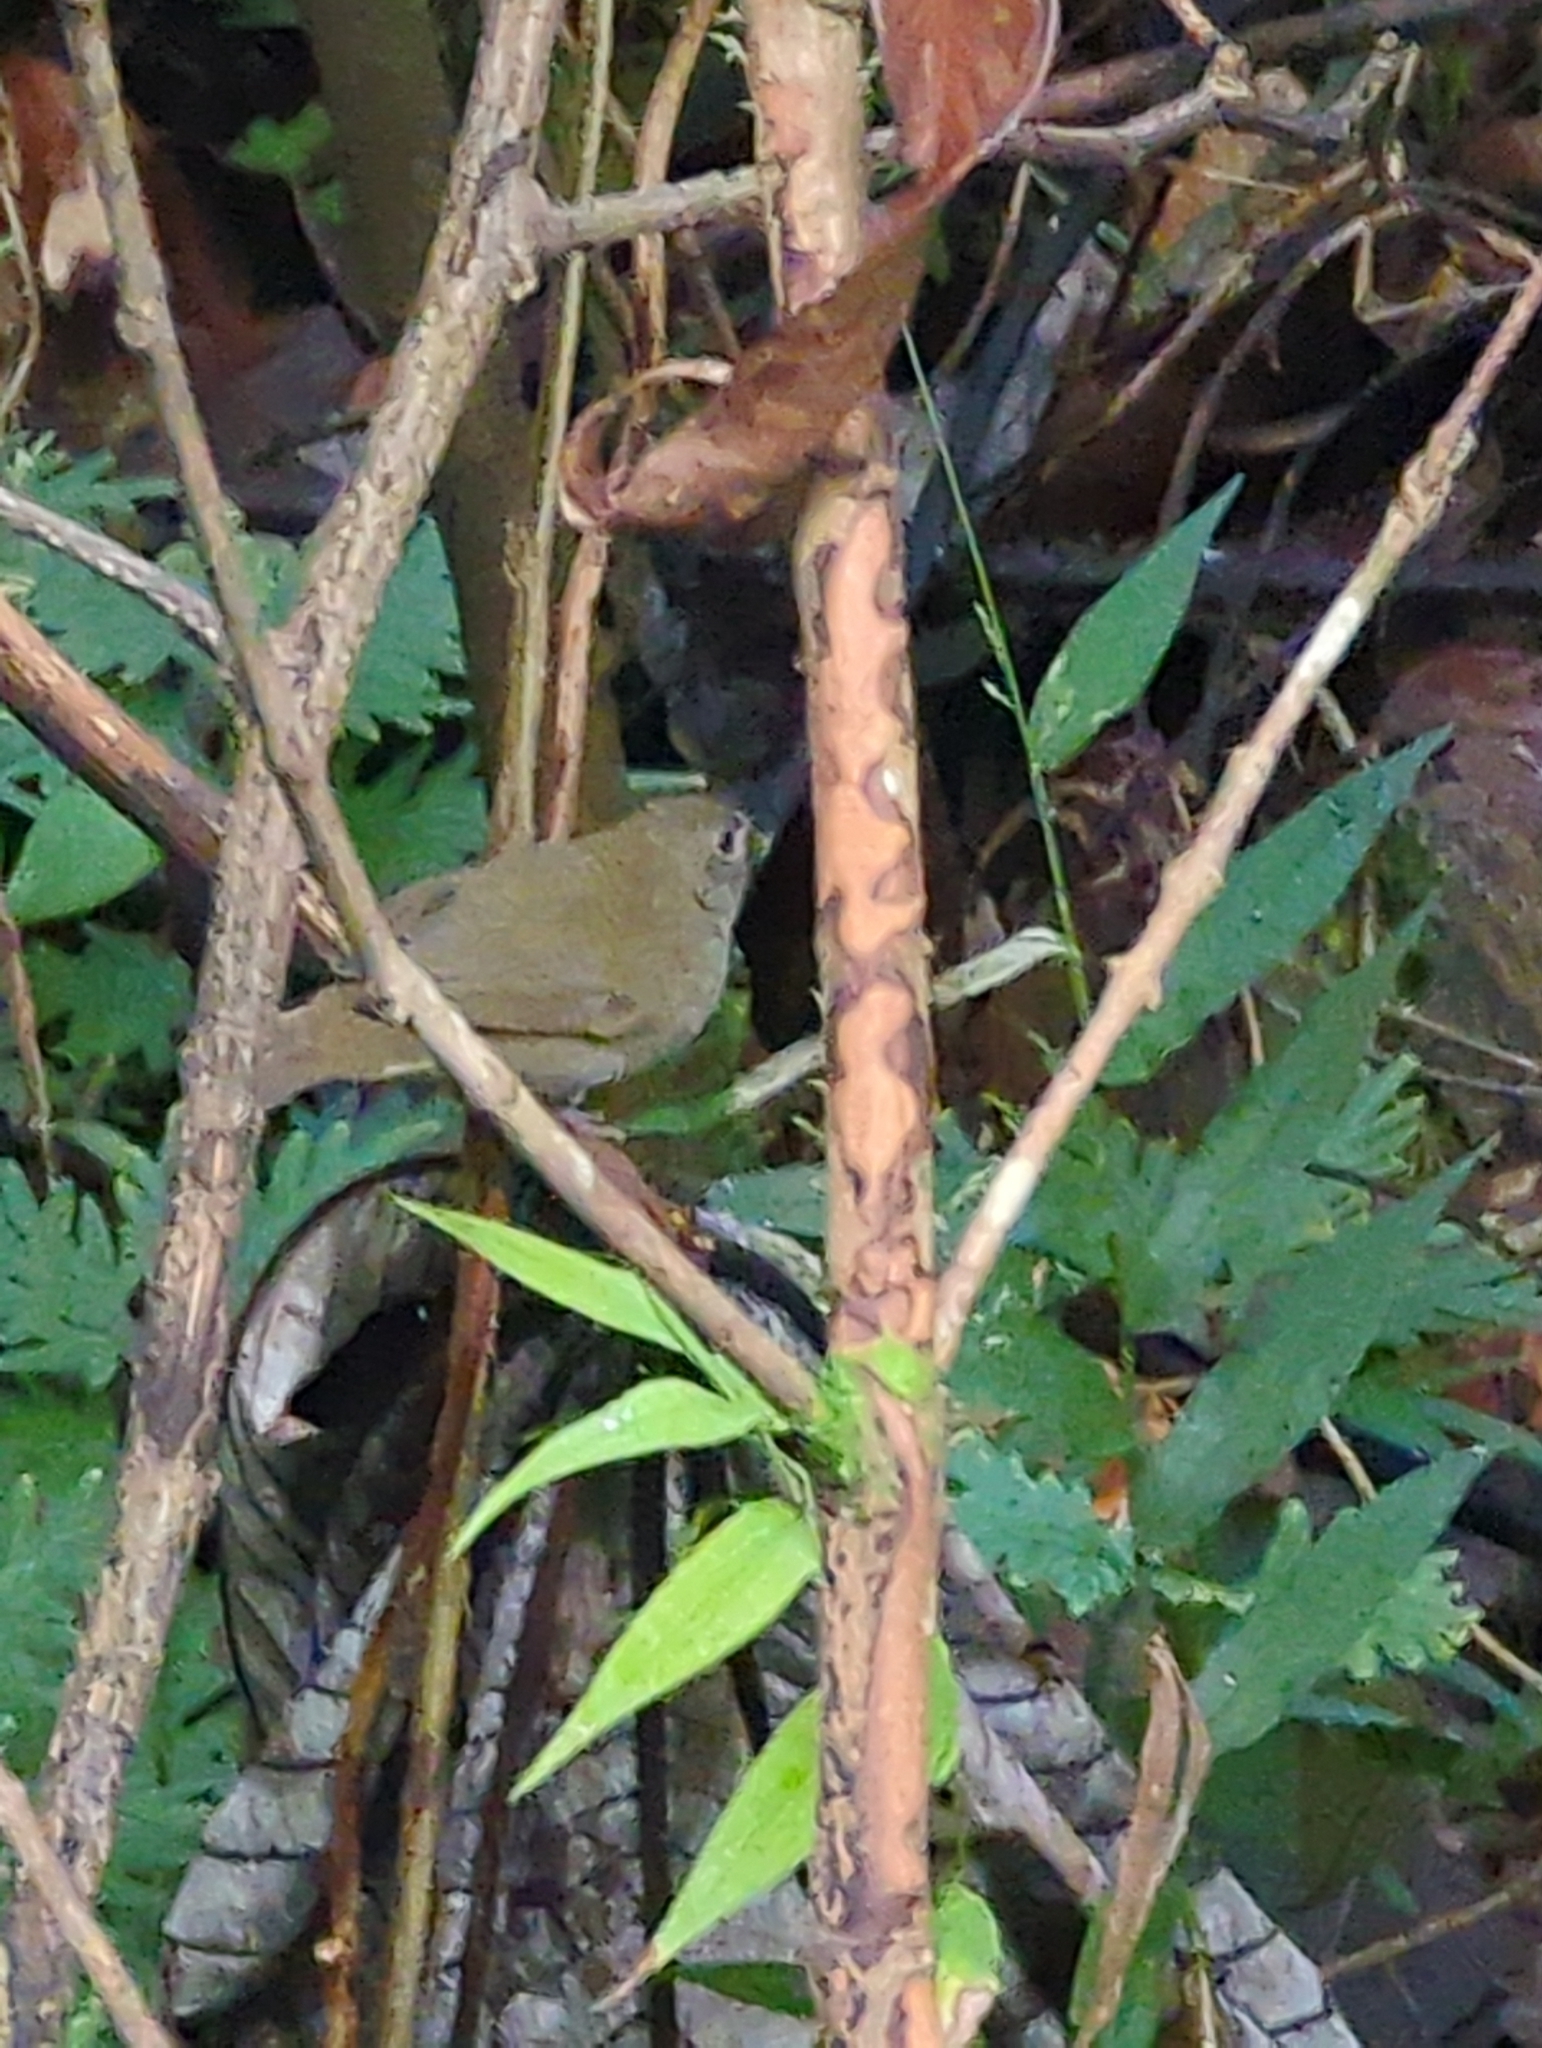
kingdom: Animalia
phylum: Chordata
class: Aves
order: Passeriformes
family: Thraupidae
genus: Melanospiza
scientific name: Melanospiza bicolor
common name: Black-faced grassquit
